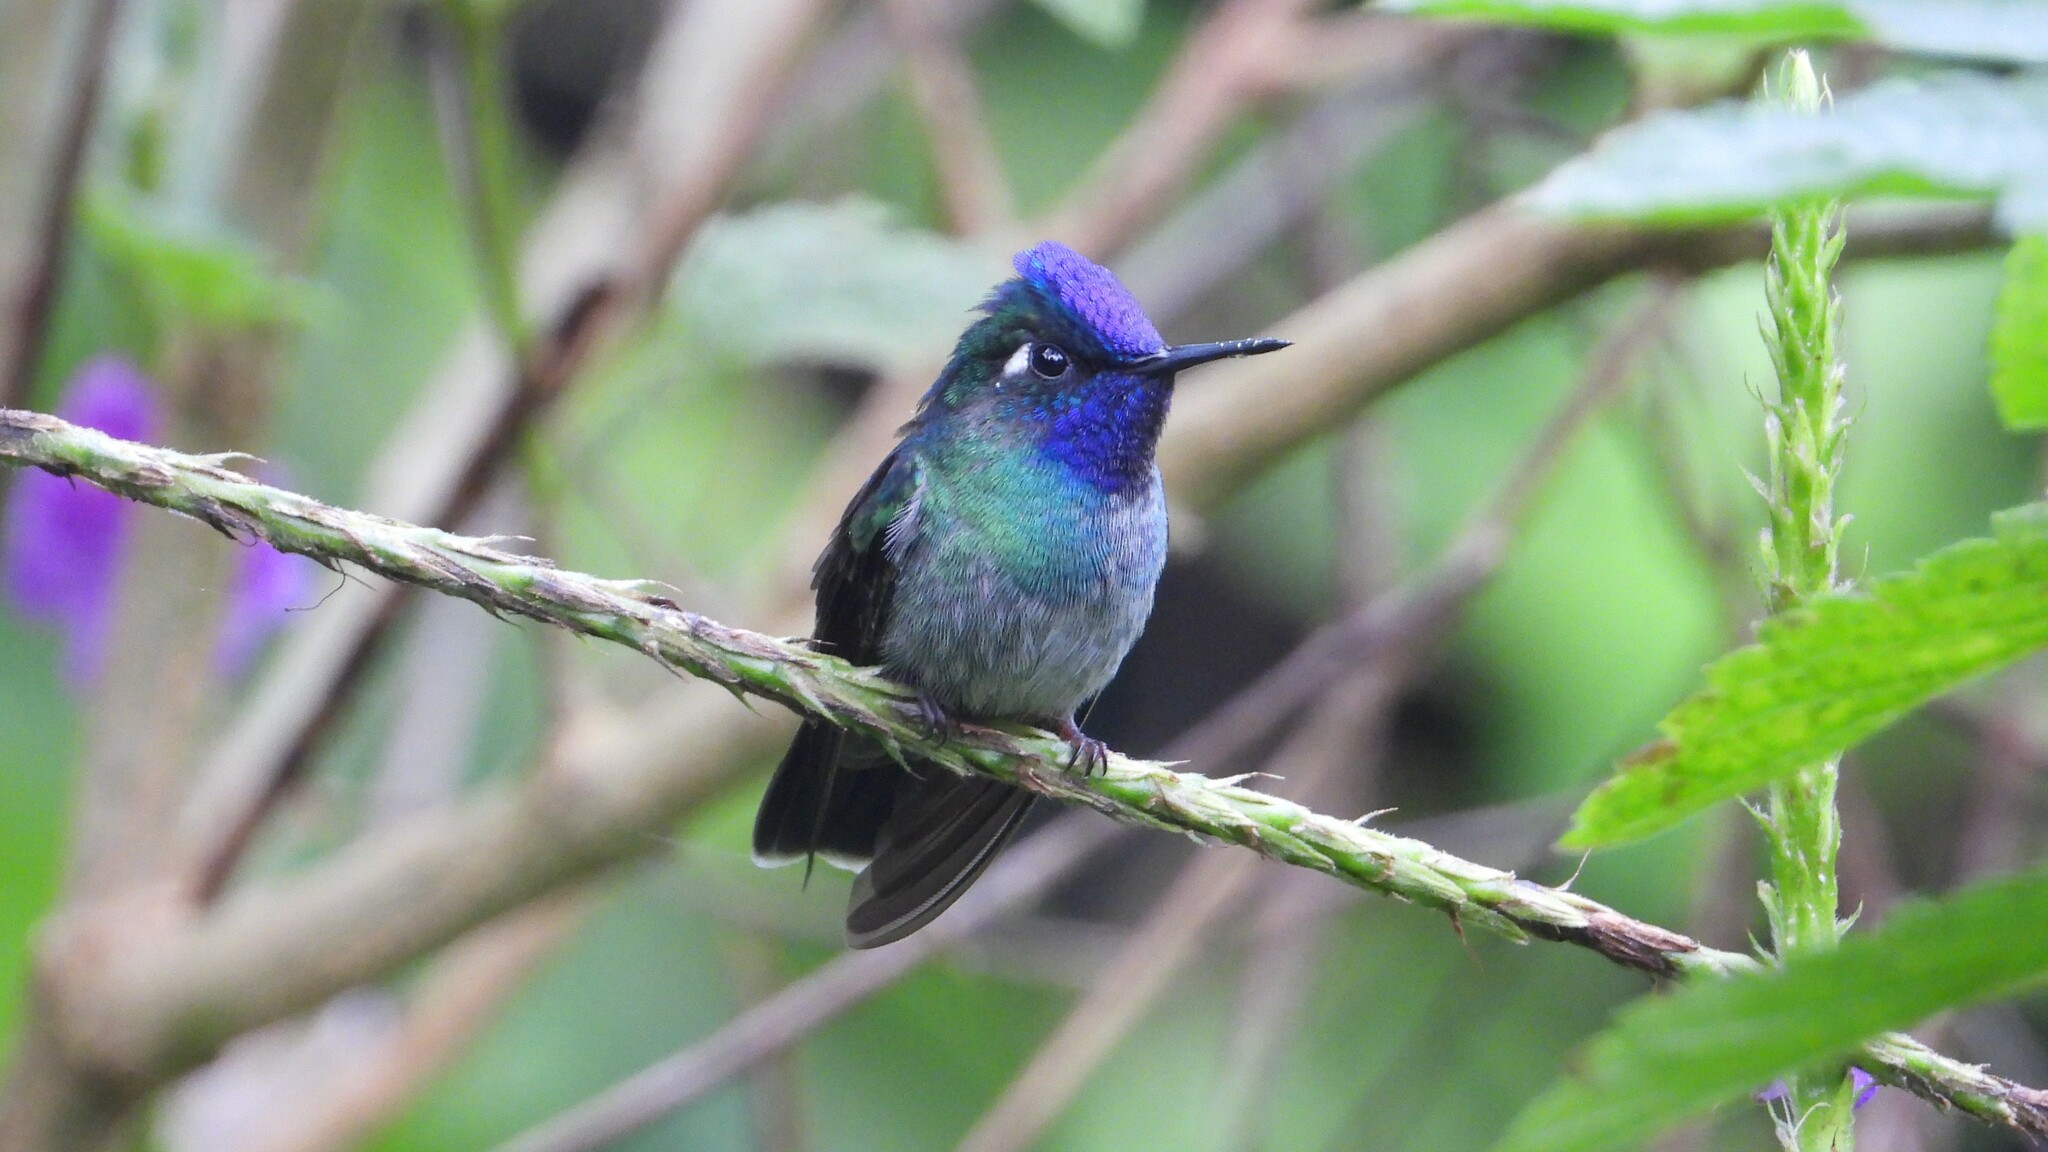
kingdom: Animalia
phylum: Chordata
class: Aves
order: Apodiformes
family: Trochilidae
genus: Klais
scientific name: Klais guimeti
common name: Violet-headed hummingbird
